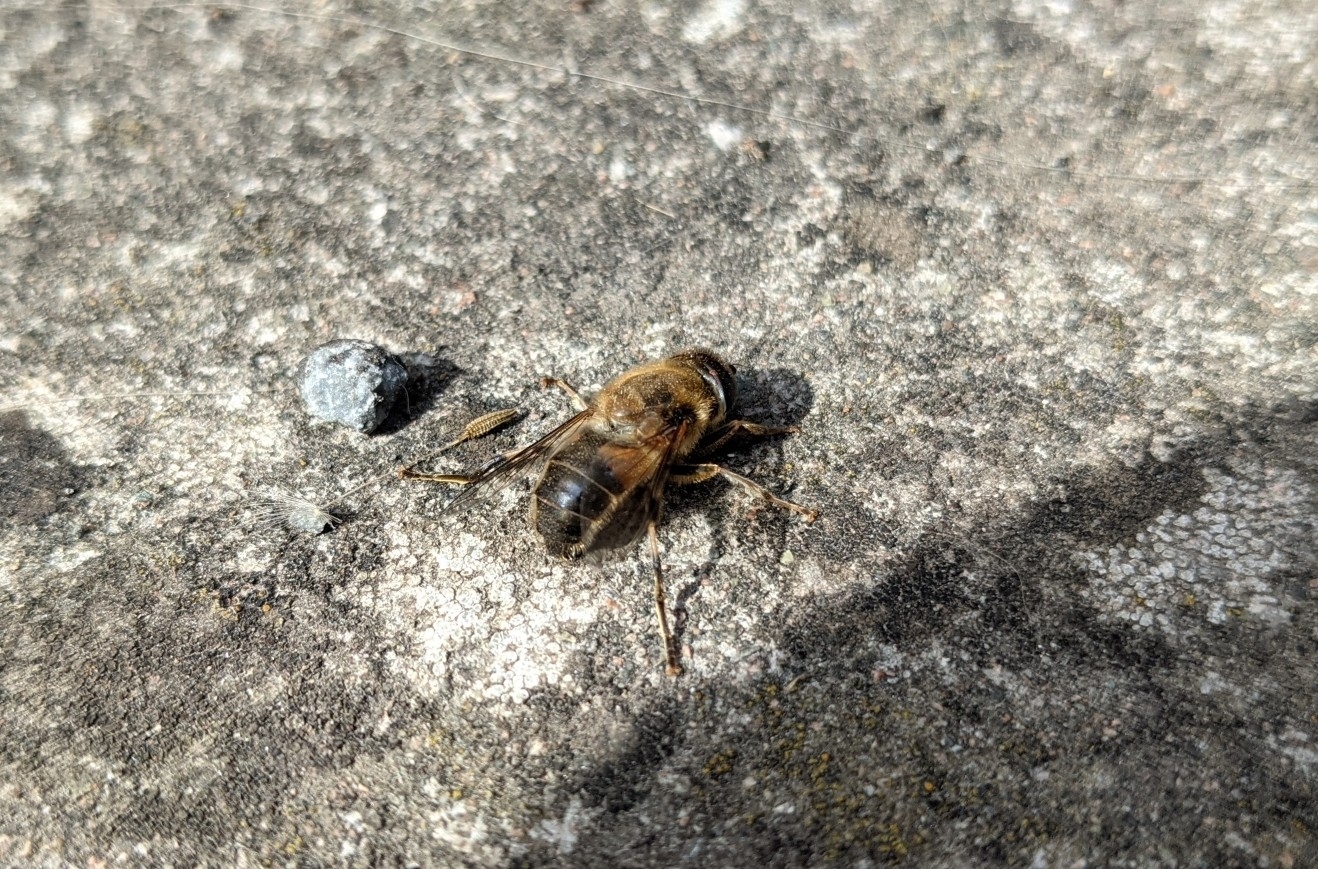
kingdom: Animalia
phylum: Arthropoda
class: Insecta
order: Diptera
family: Syrphidae
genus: Eristalis
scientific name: Eristalis pertinax
